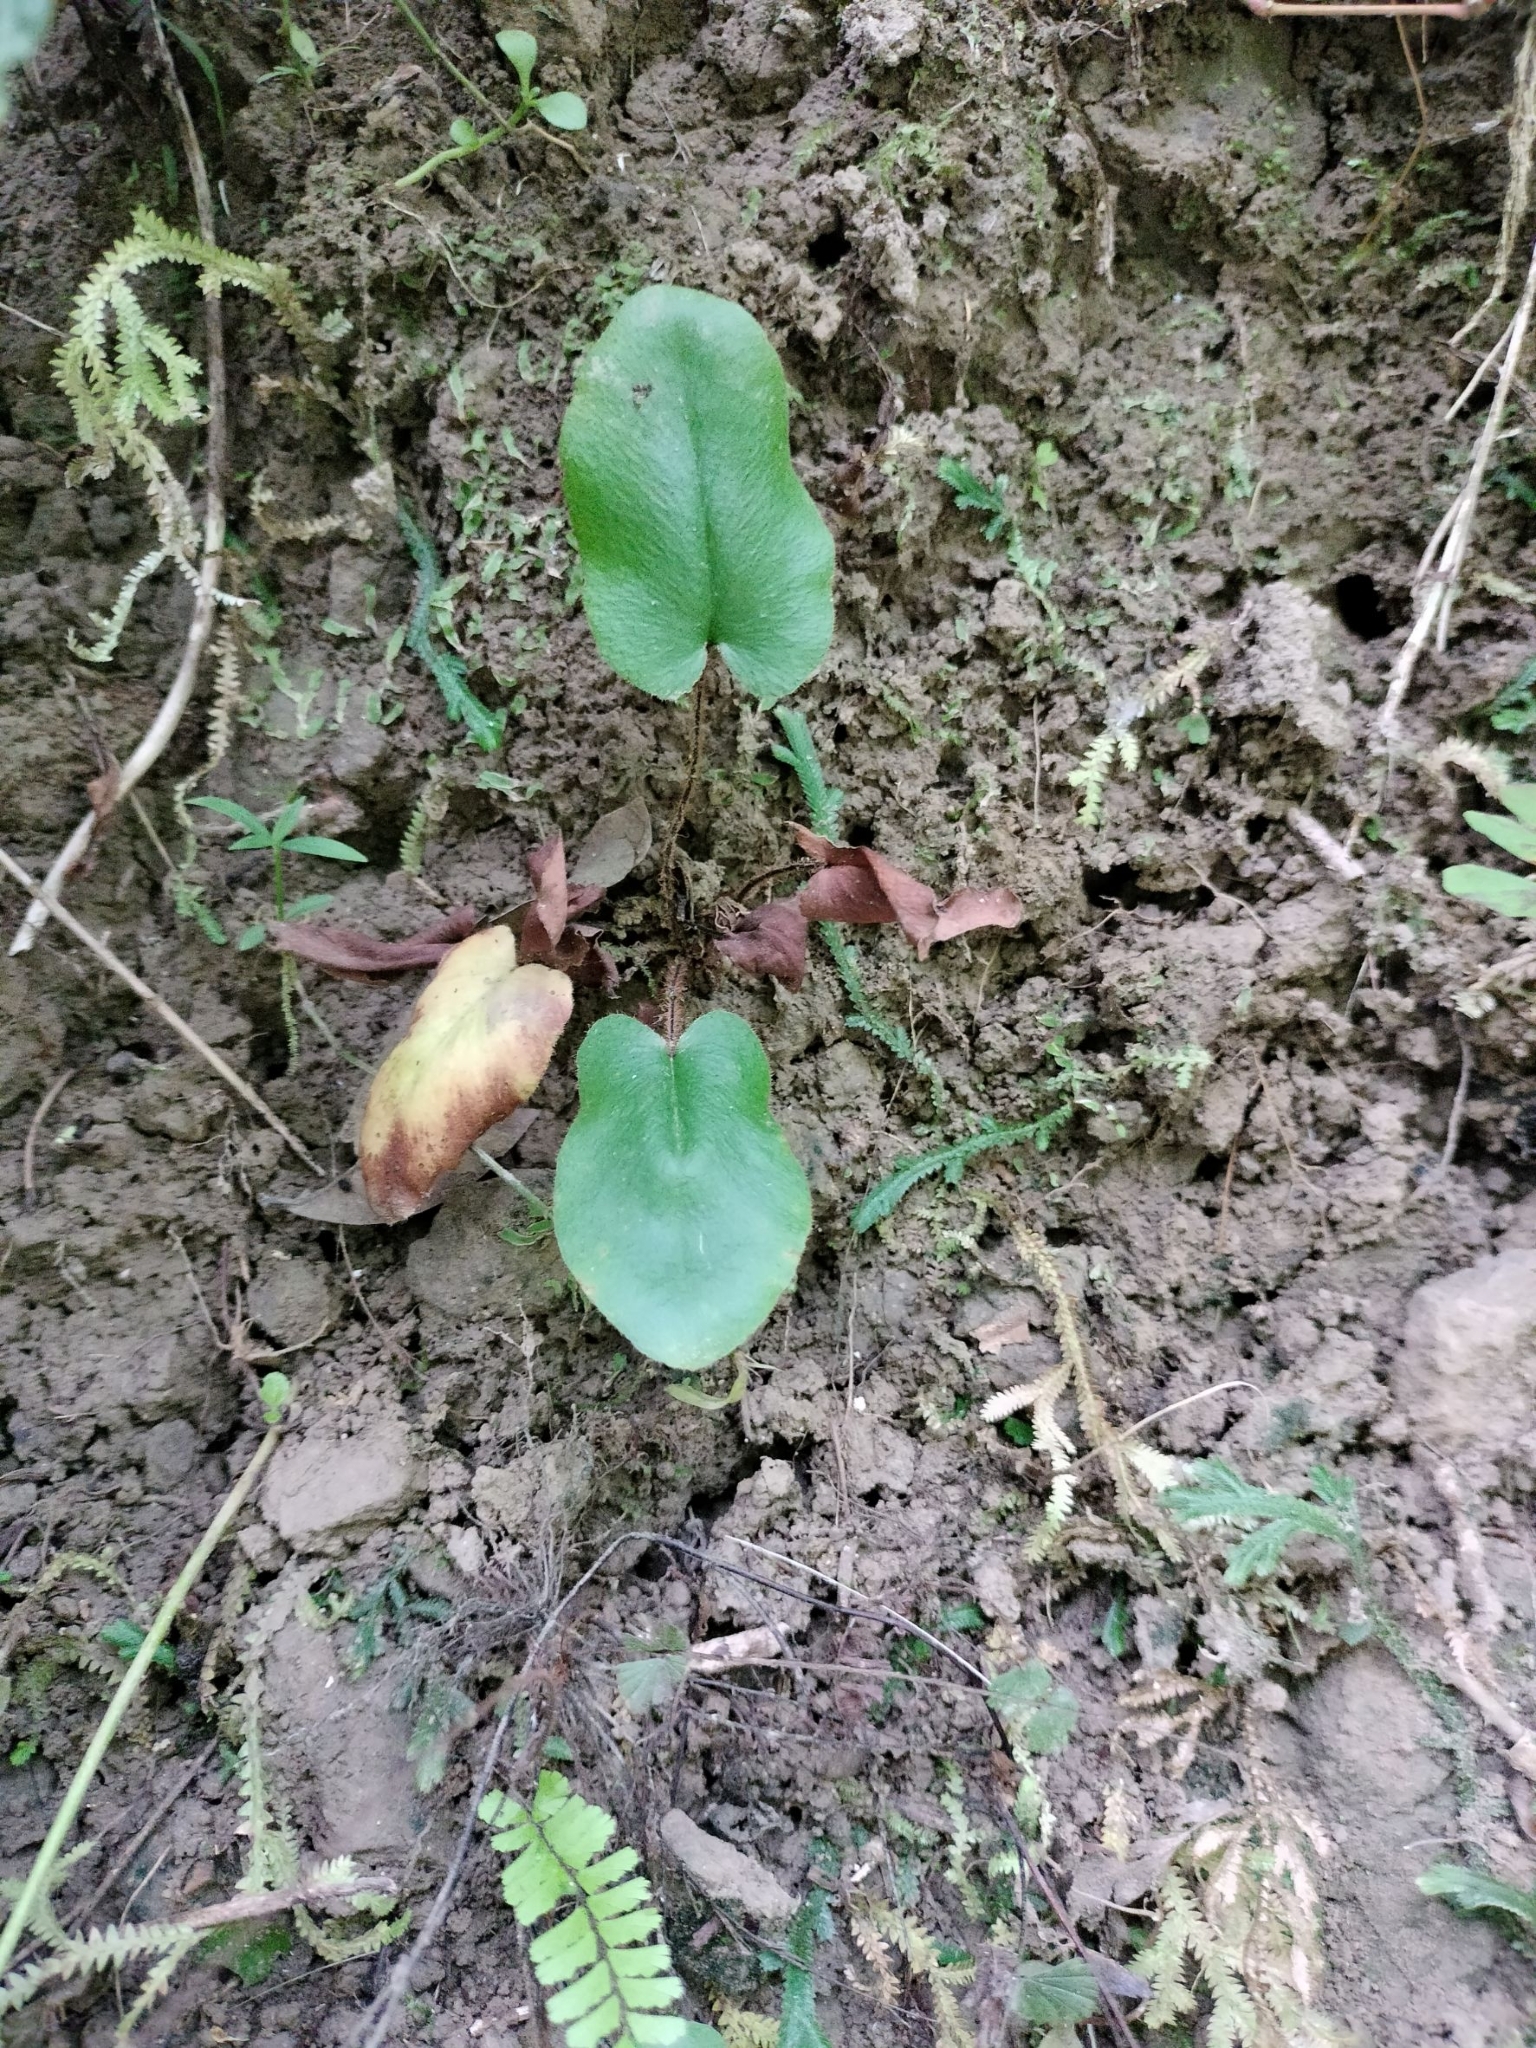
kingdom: Plantae
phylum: Tracheophyta
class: Polypodiopsida
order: Polypodiales
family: Pteridaceae
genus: Mickelopteris
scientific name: Mickelopteris cordata
